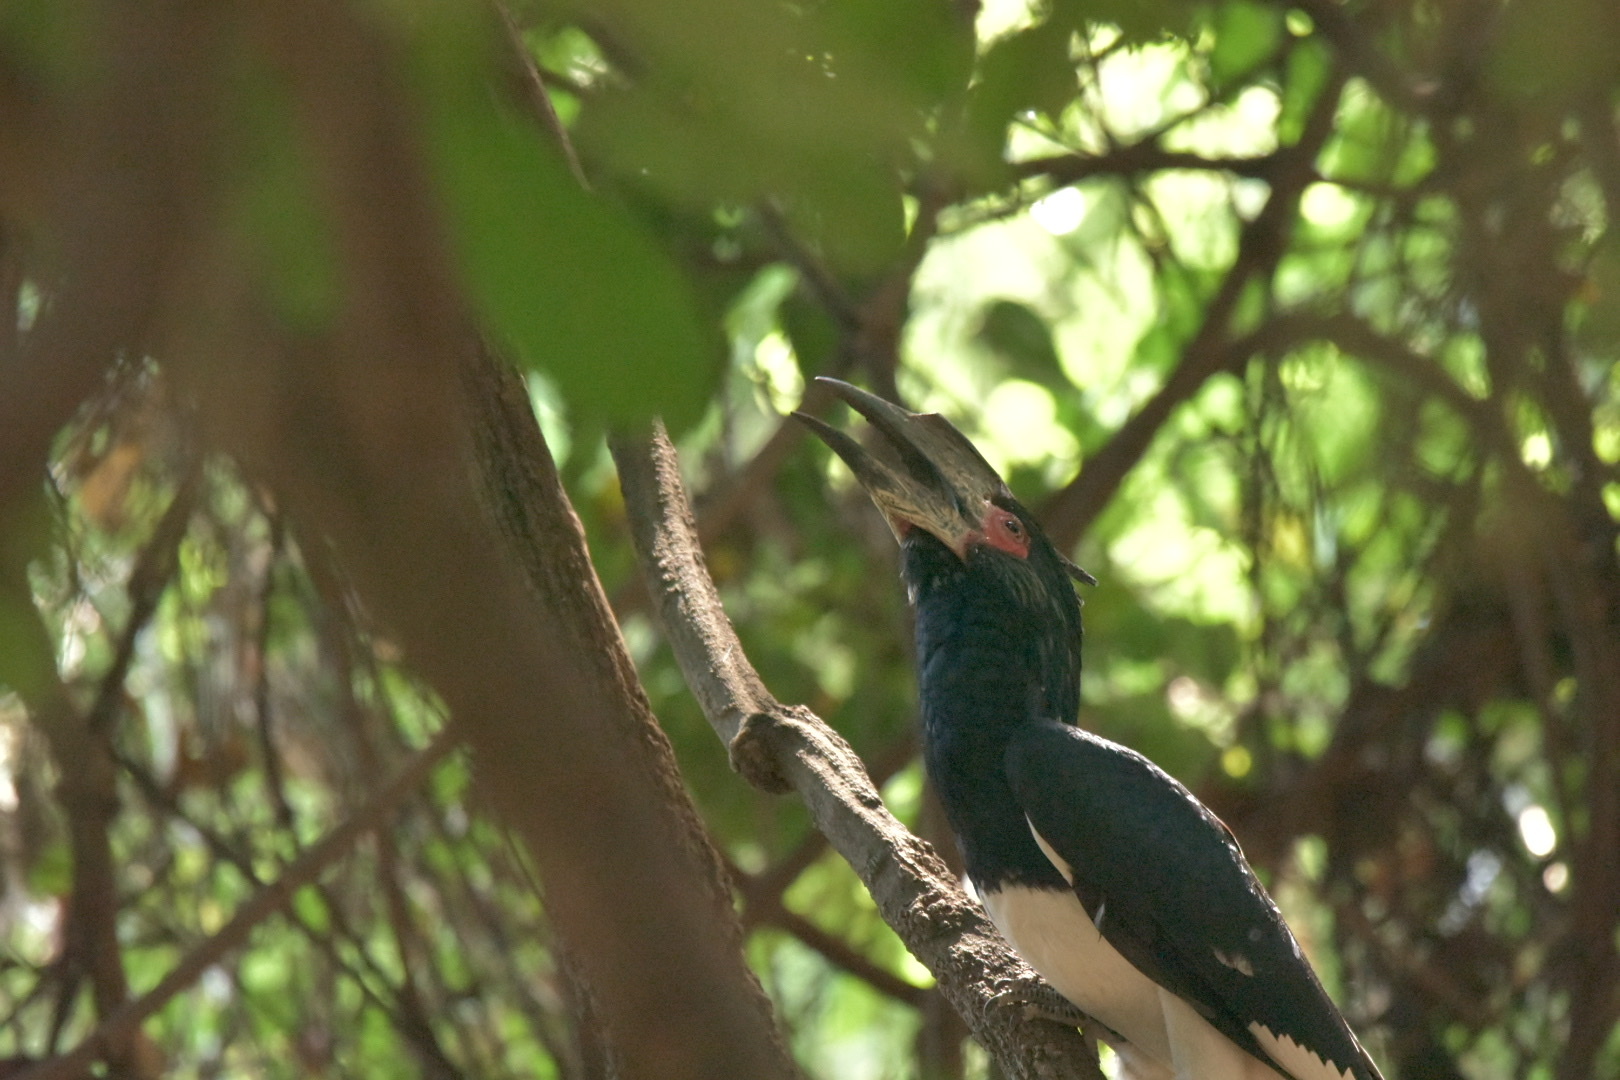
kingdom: Animalia
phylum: Chordata
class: Aves
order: Bucerotiformes
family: Bucerotidae
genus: Bycanistes
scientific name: Bycanistes bucinator
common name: Trumpeter hornbill
